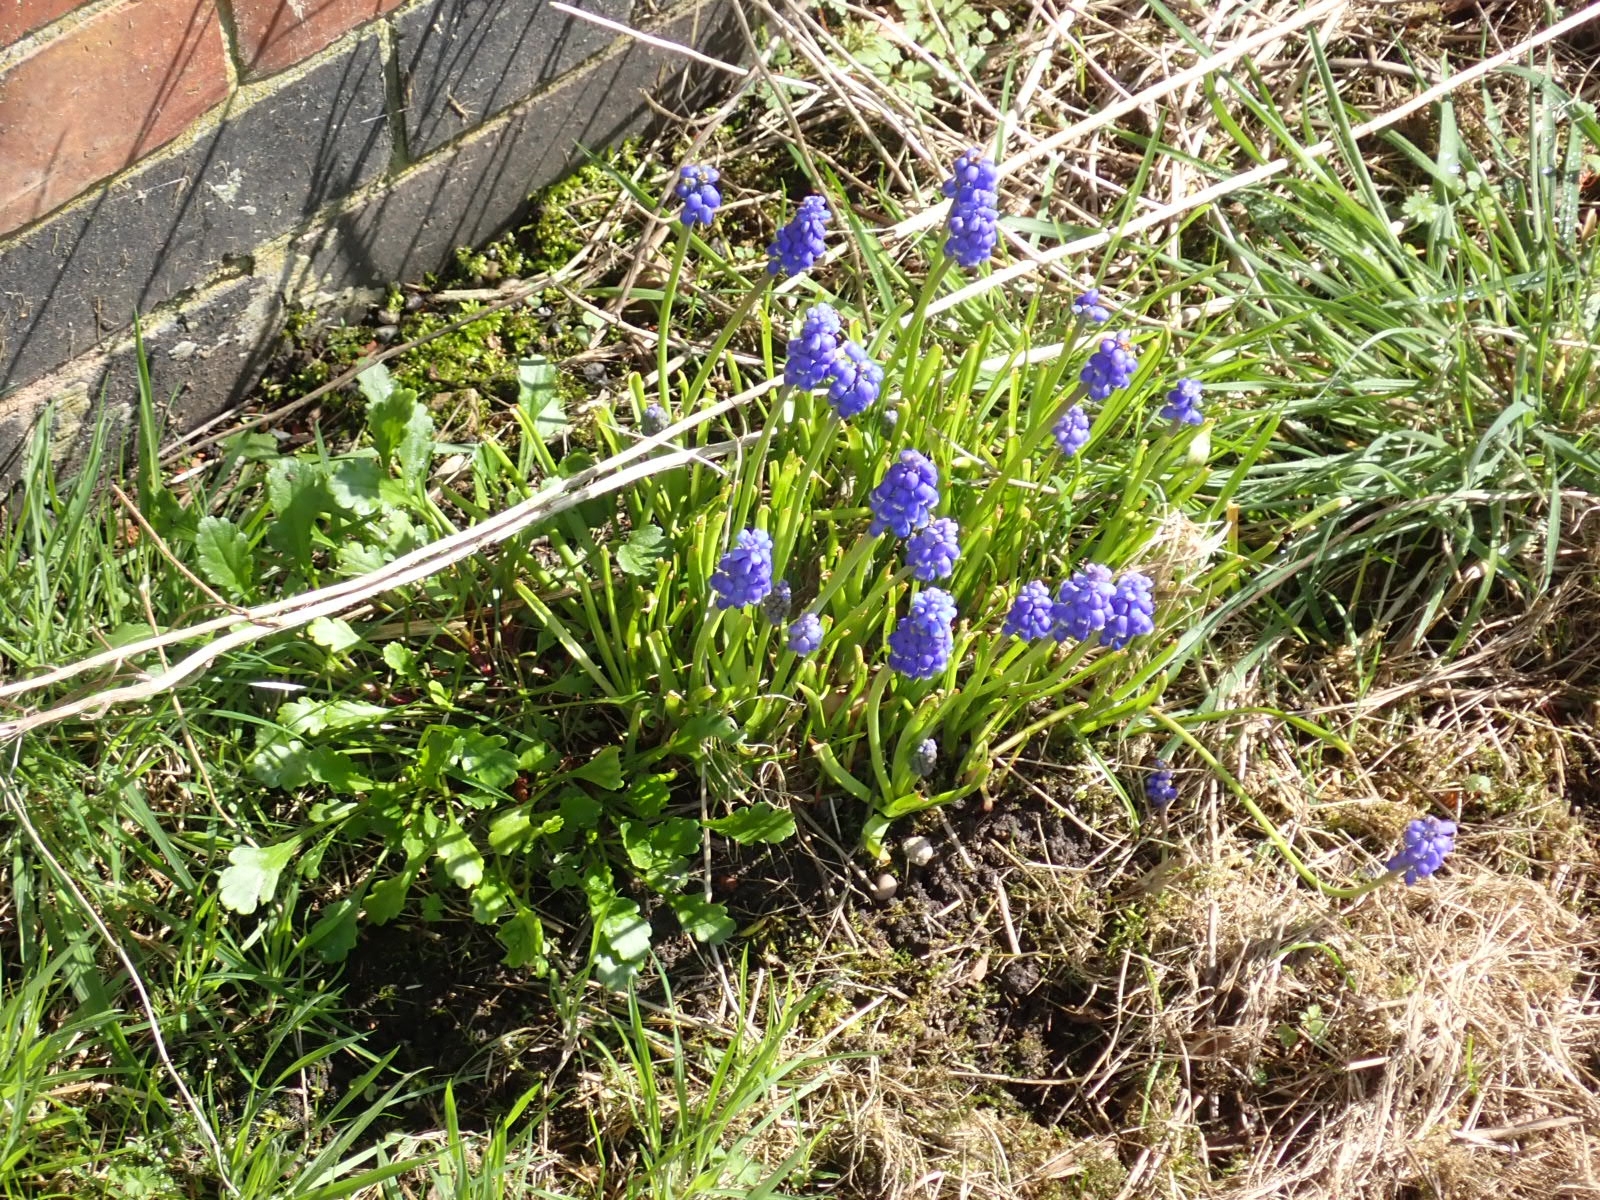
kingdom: Plantae
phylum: Tracheophyta
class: Liliopsida
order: Asparagales
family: Asparagaceae
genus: Muscari
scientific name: Muscari armeniacum
